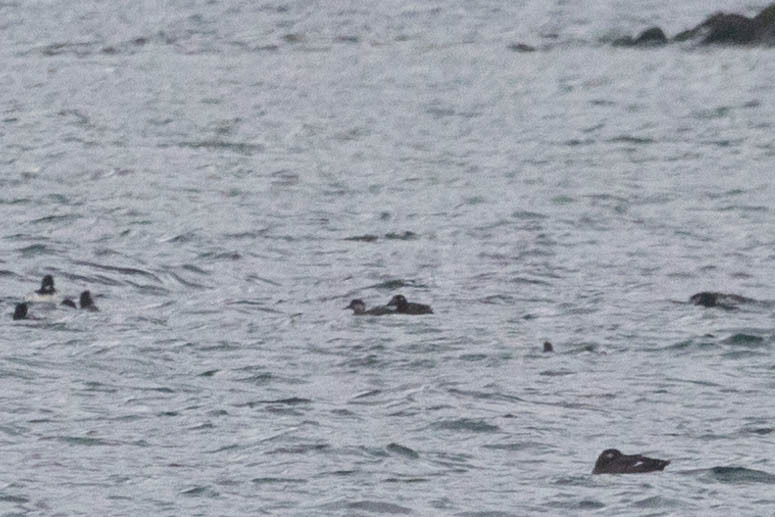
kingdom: Animalia
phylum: Chordata
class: Aves
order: Anseriformes
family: Anatidae
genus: Melanitta
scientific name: Melanitta americana
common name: Black scoter
